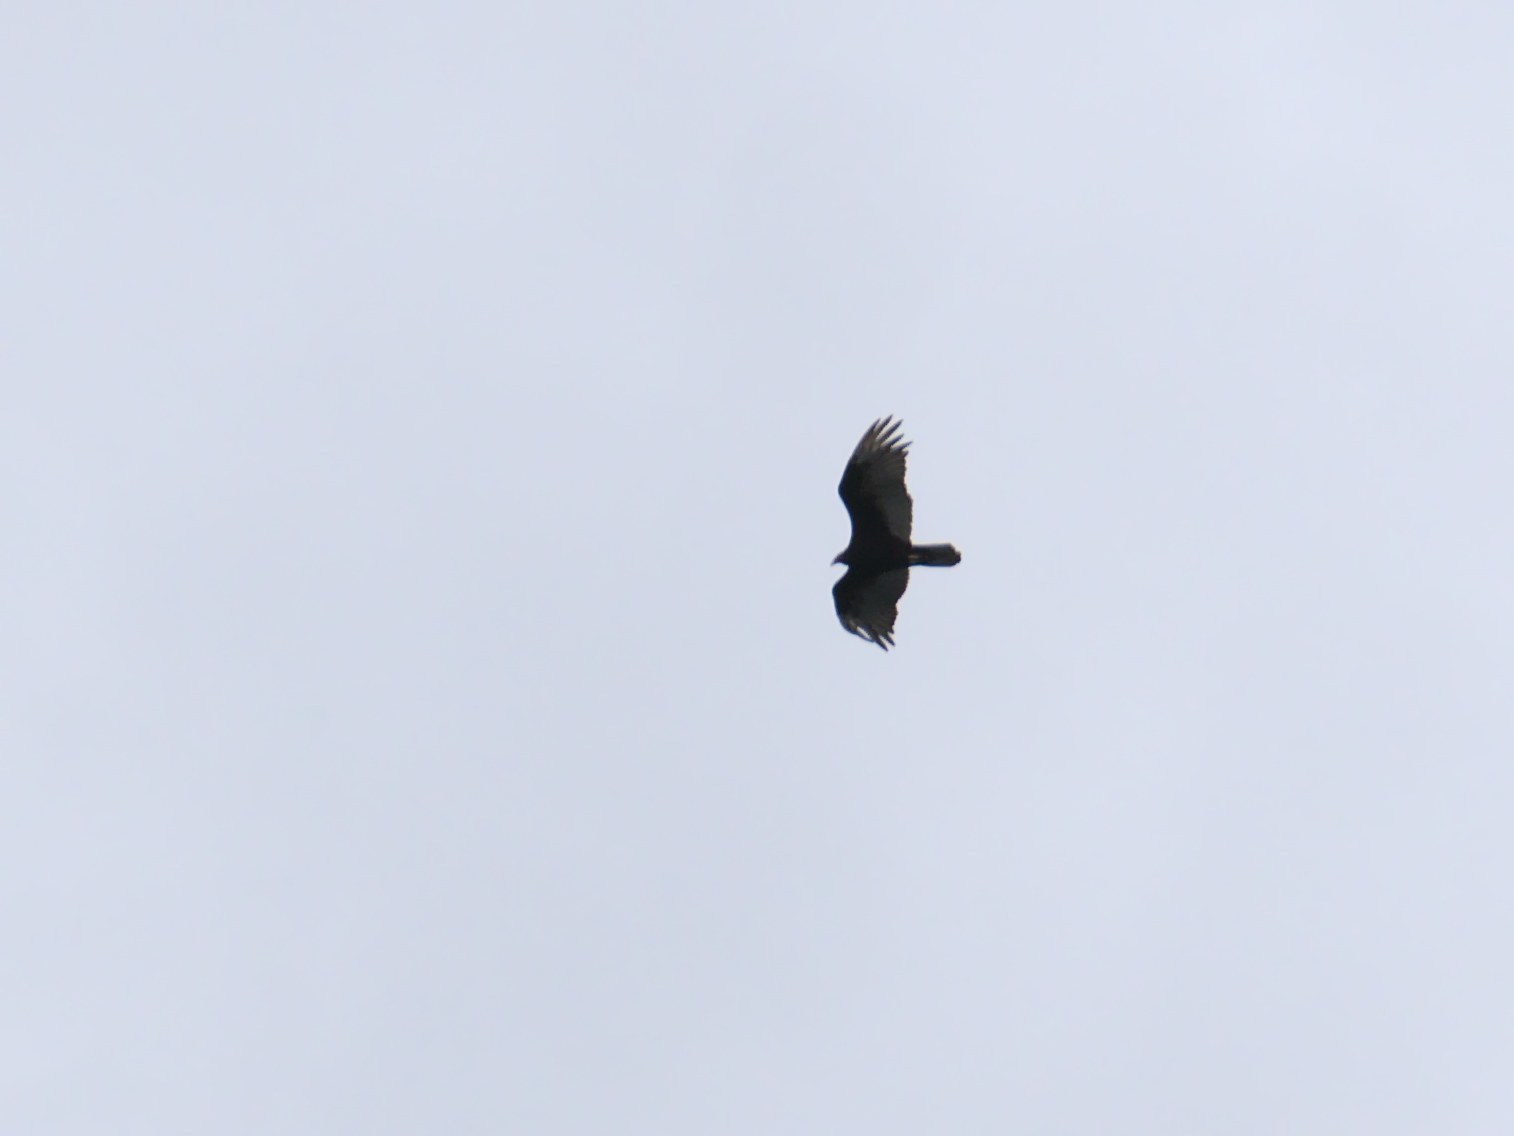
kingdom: Animalia
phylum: Chordata
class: Aves
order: Accipitriformes
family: Cathartidae
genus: Cathartes
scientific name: Cathartes aura
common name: Turkey vulture
